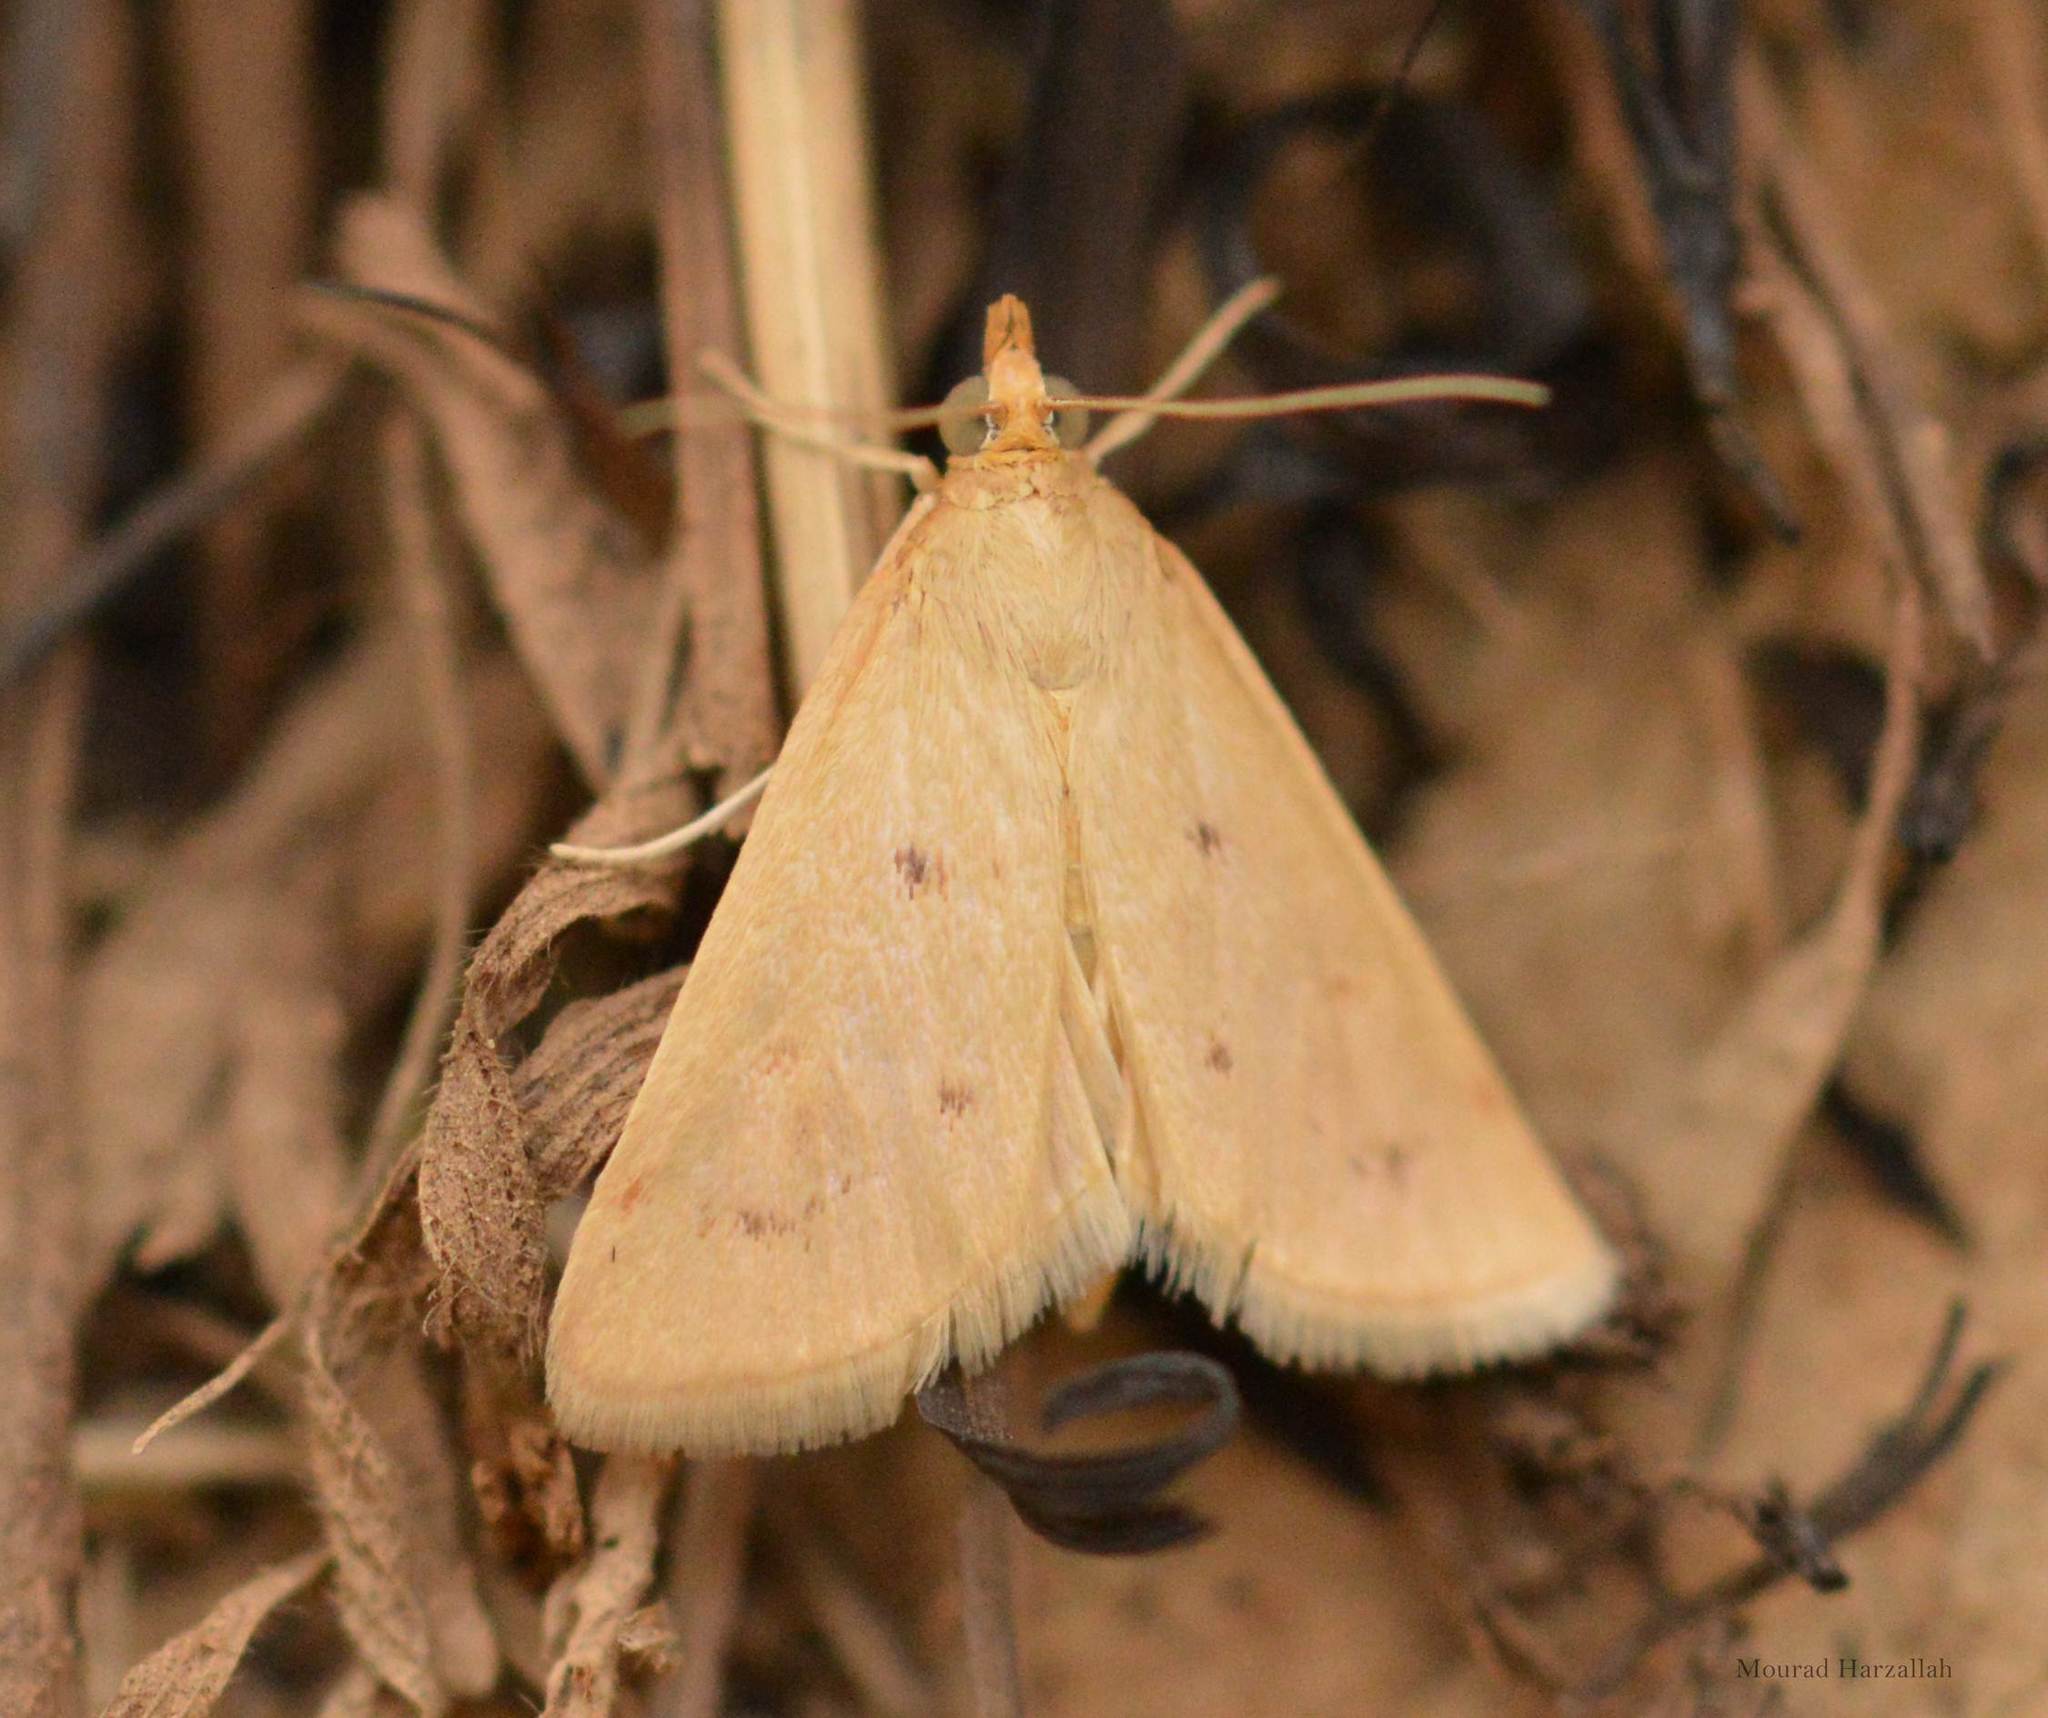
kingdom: Animalia
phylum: Arthropoda
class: Insecta
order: Lepidoptera
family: Crambidae
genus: Achyra
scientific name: Achyra nudalis
